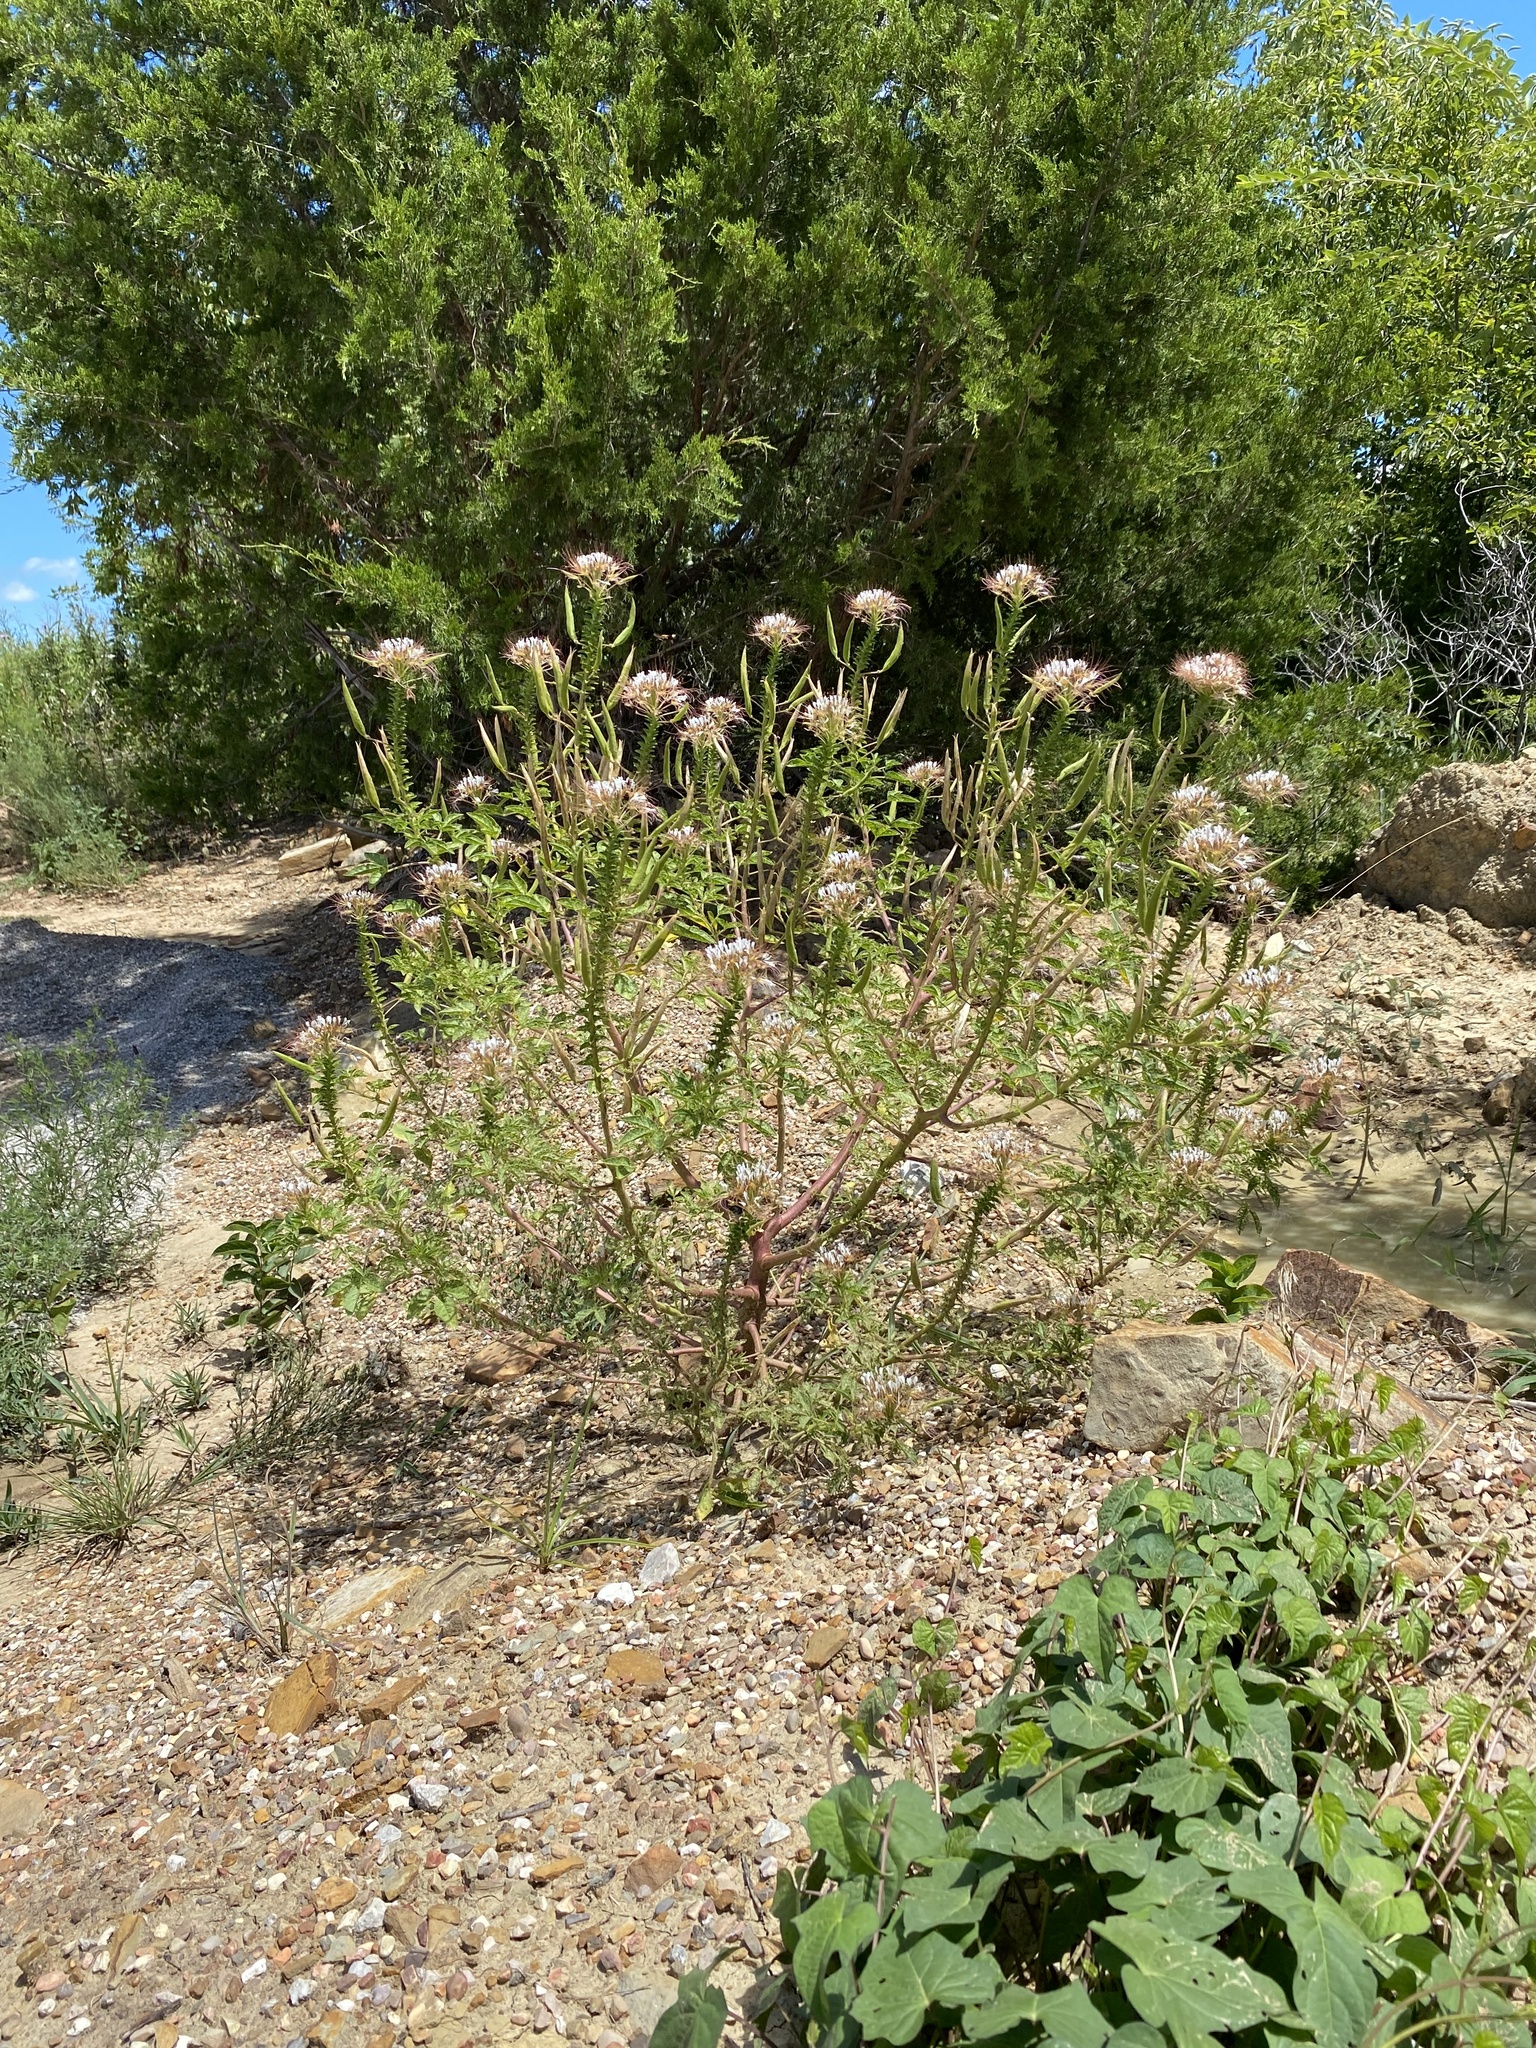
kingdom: Plantae
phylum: Tracheophyta
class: Magnoliopsida
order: Brassicales
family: Cleomaceae
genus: Polanisia
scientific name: Polanisia dodecandra
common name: Clammyweed
